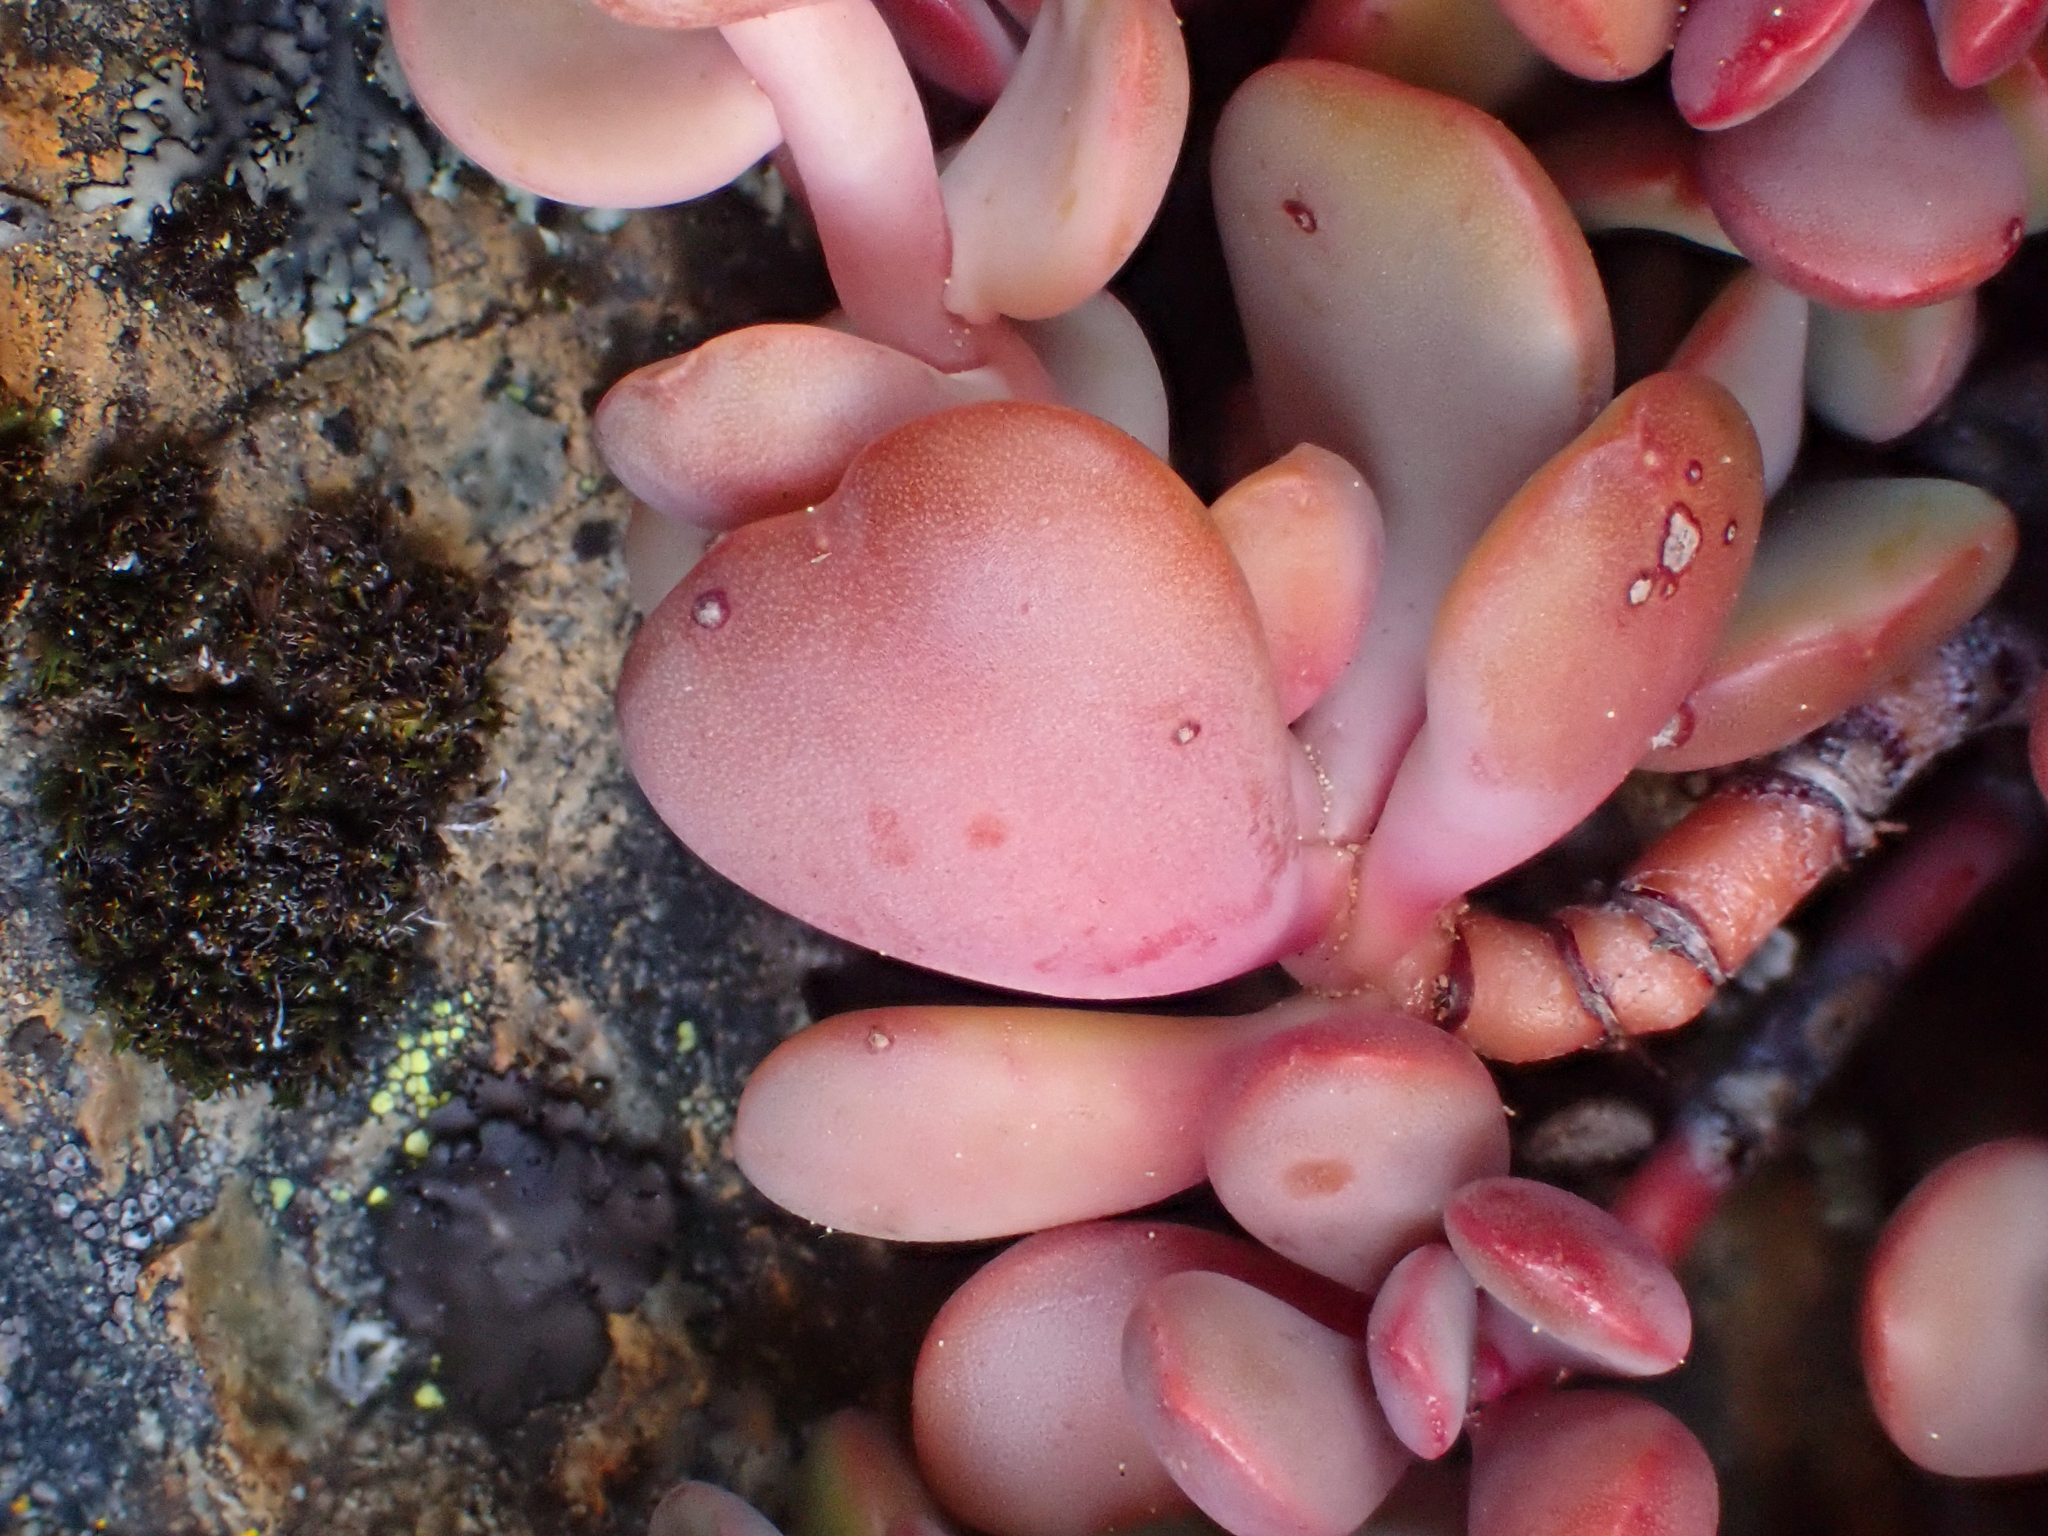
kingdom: Plantae
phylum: Tracheophyta
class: Magnoliopsida
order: Saxifragales
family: Crassulaceae
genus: Sedum
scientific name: Sedum oregonense
